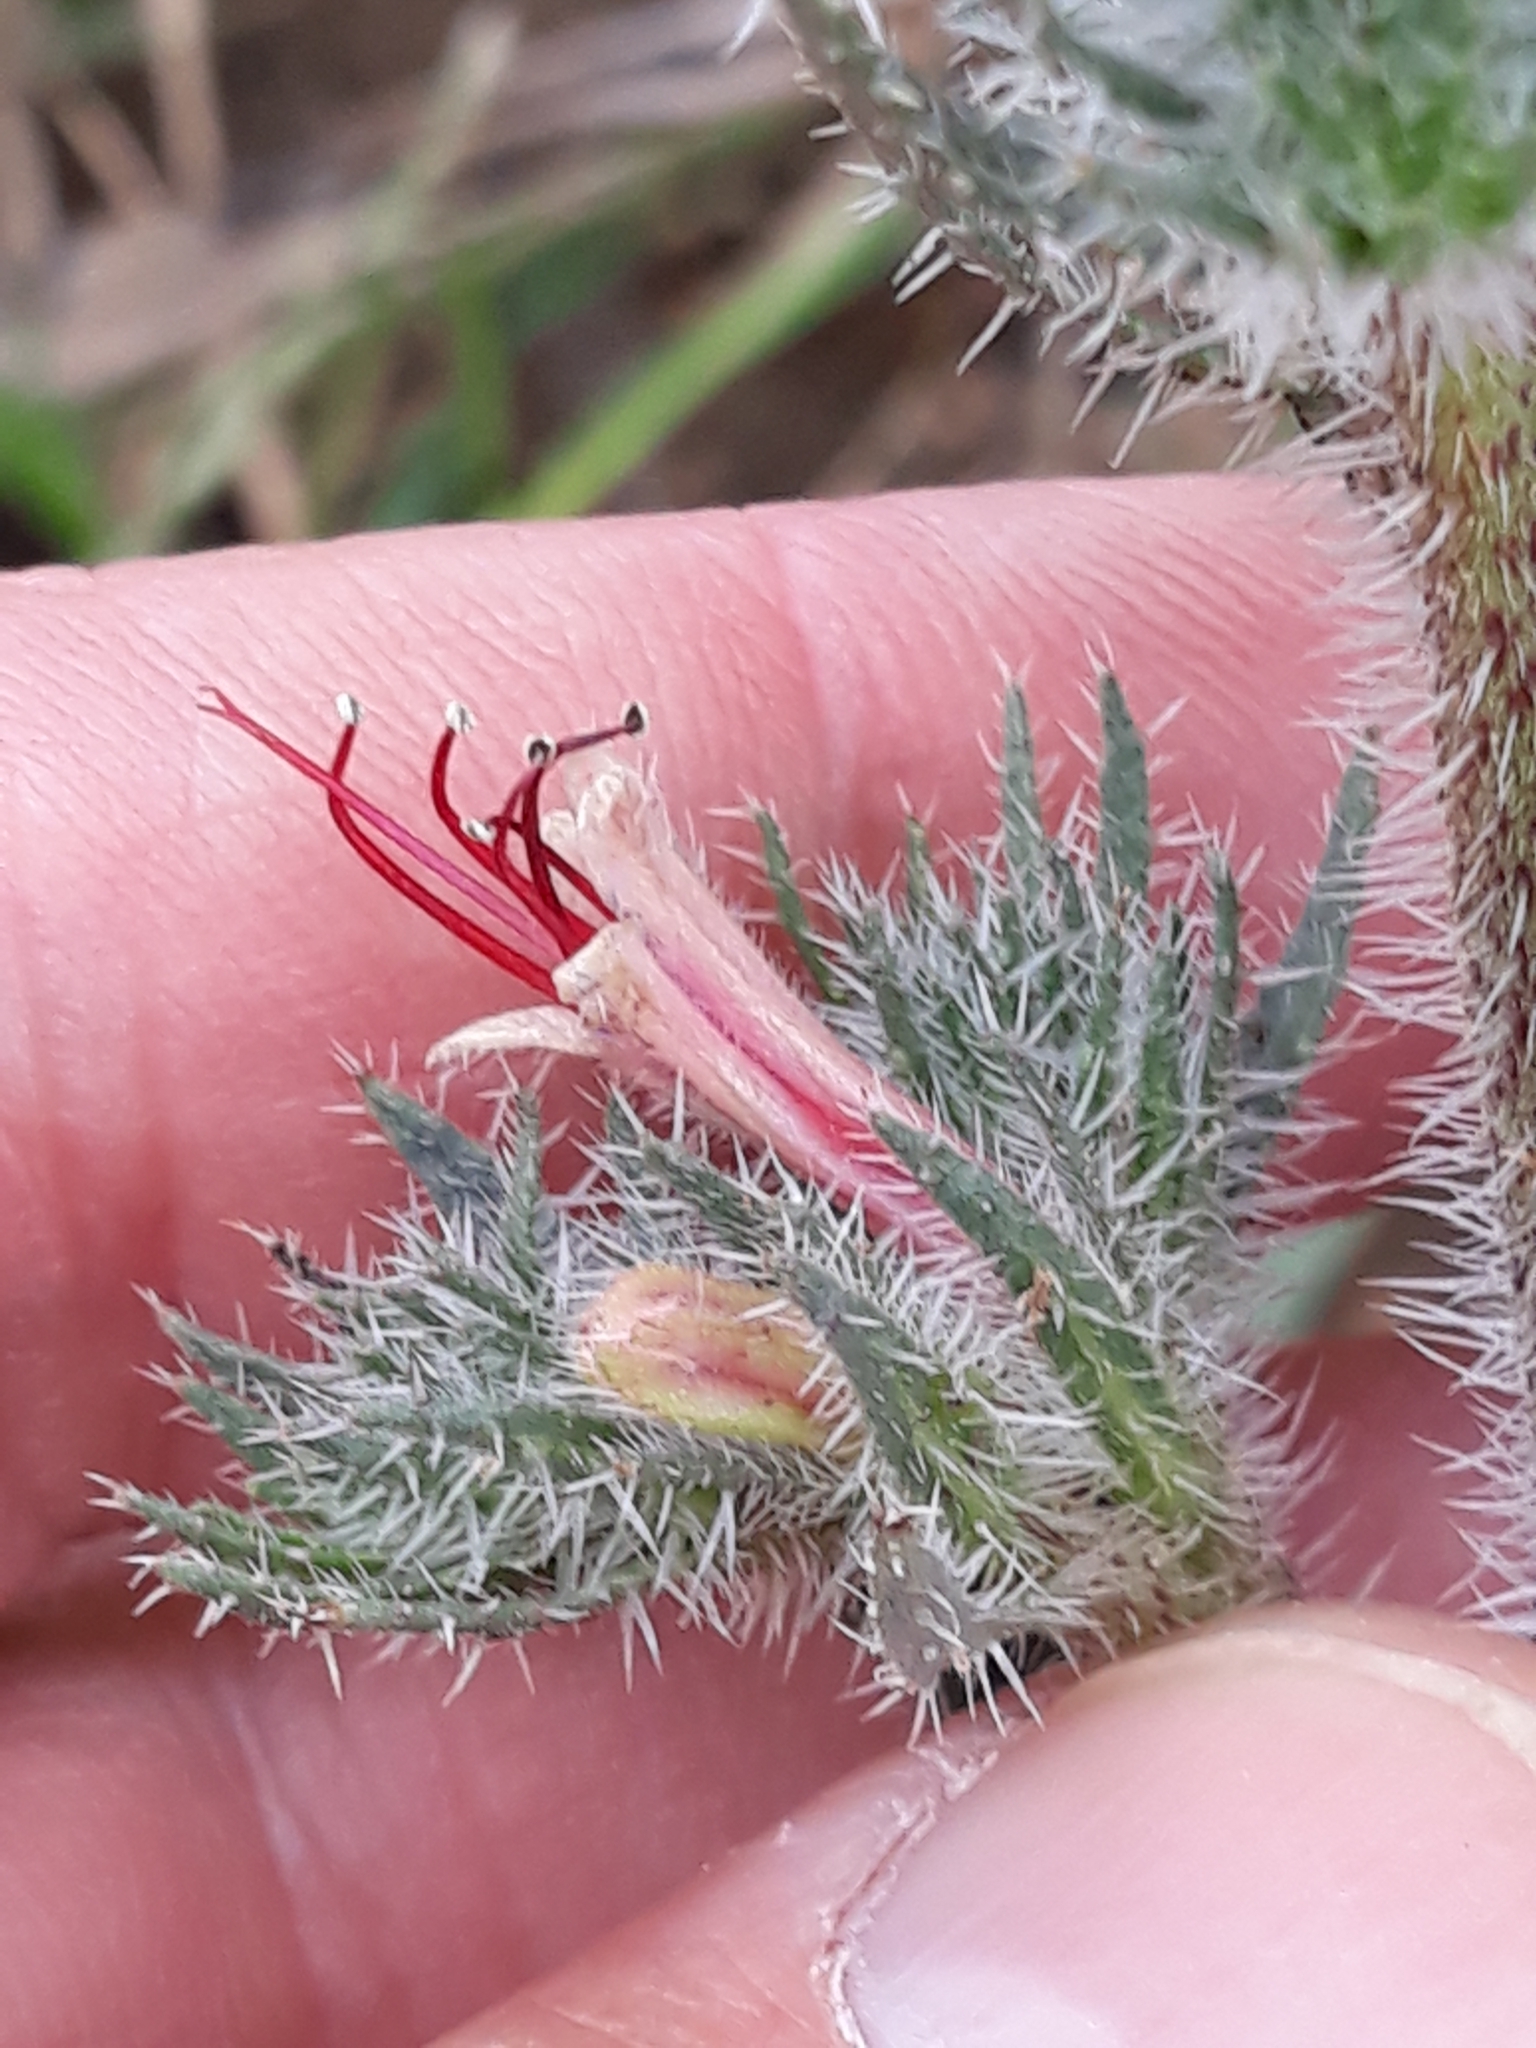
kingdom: Plantae
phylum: Tracheophyta
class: Magnoliopsida
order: Boraginales
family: Boraginaceae
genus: Echium
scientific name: Echium asperrimum
